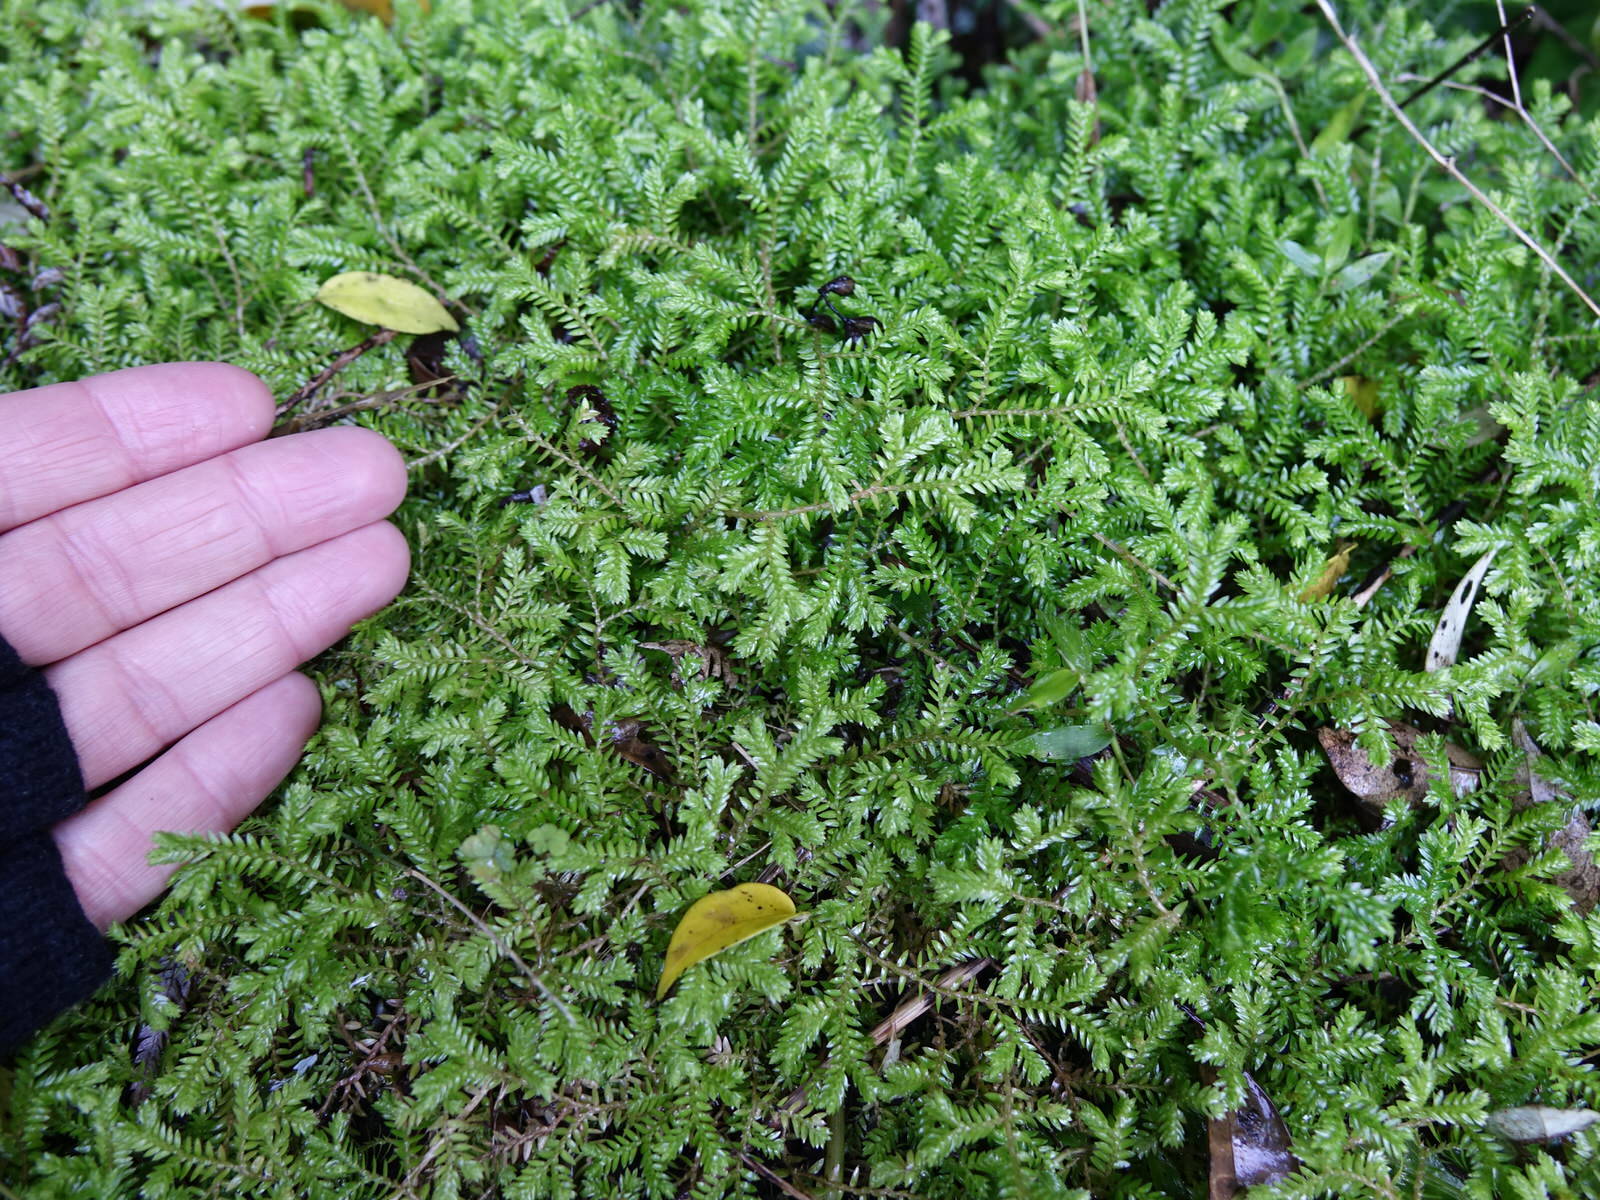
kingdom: Plantae
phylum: Tracheophyta
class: Lycopodiopsida
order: Selaginellales
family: Selaginellaceae
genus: Selaginella
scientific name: Selaginella kraussiana
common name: Krauss' spikemoss
